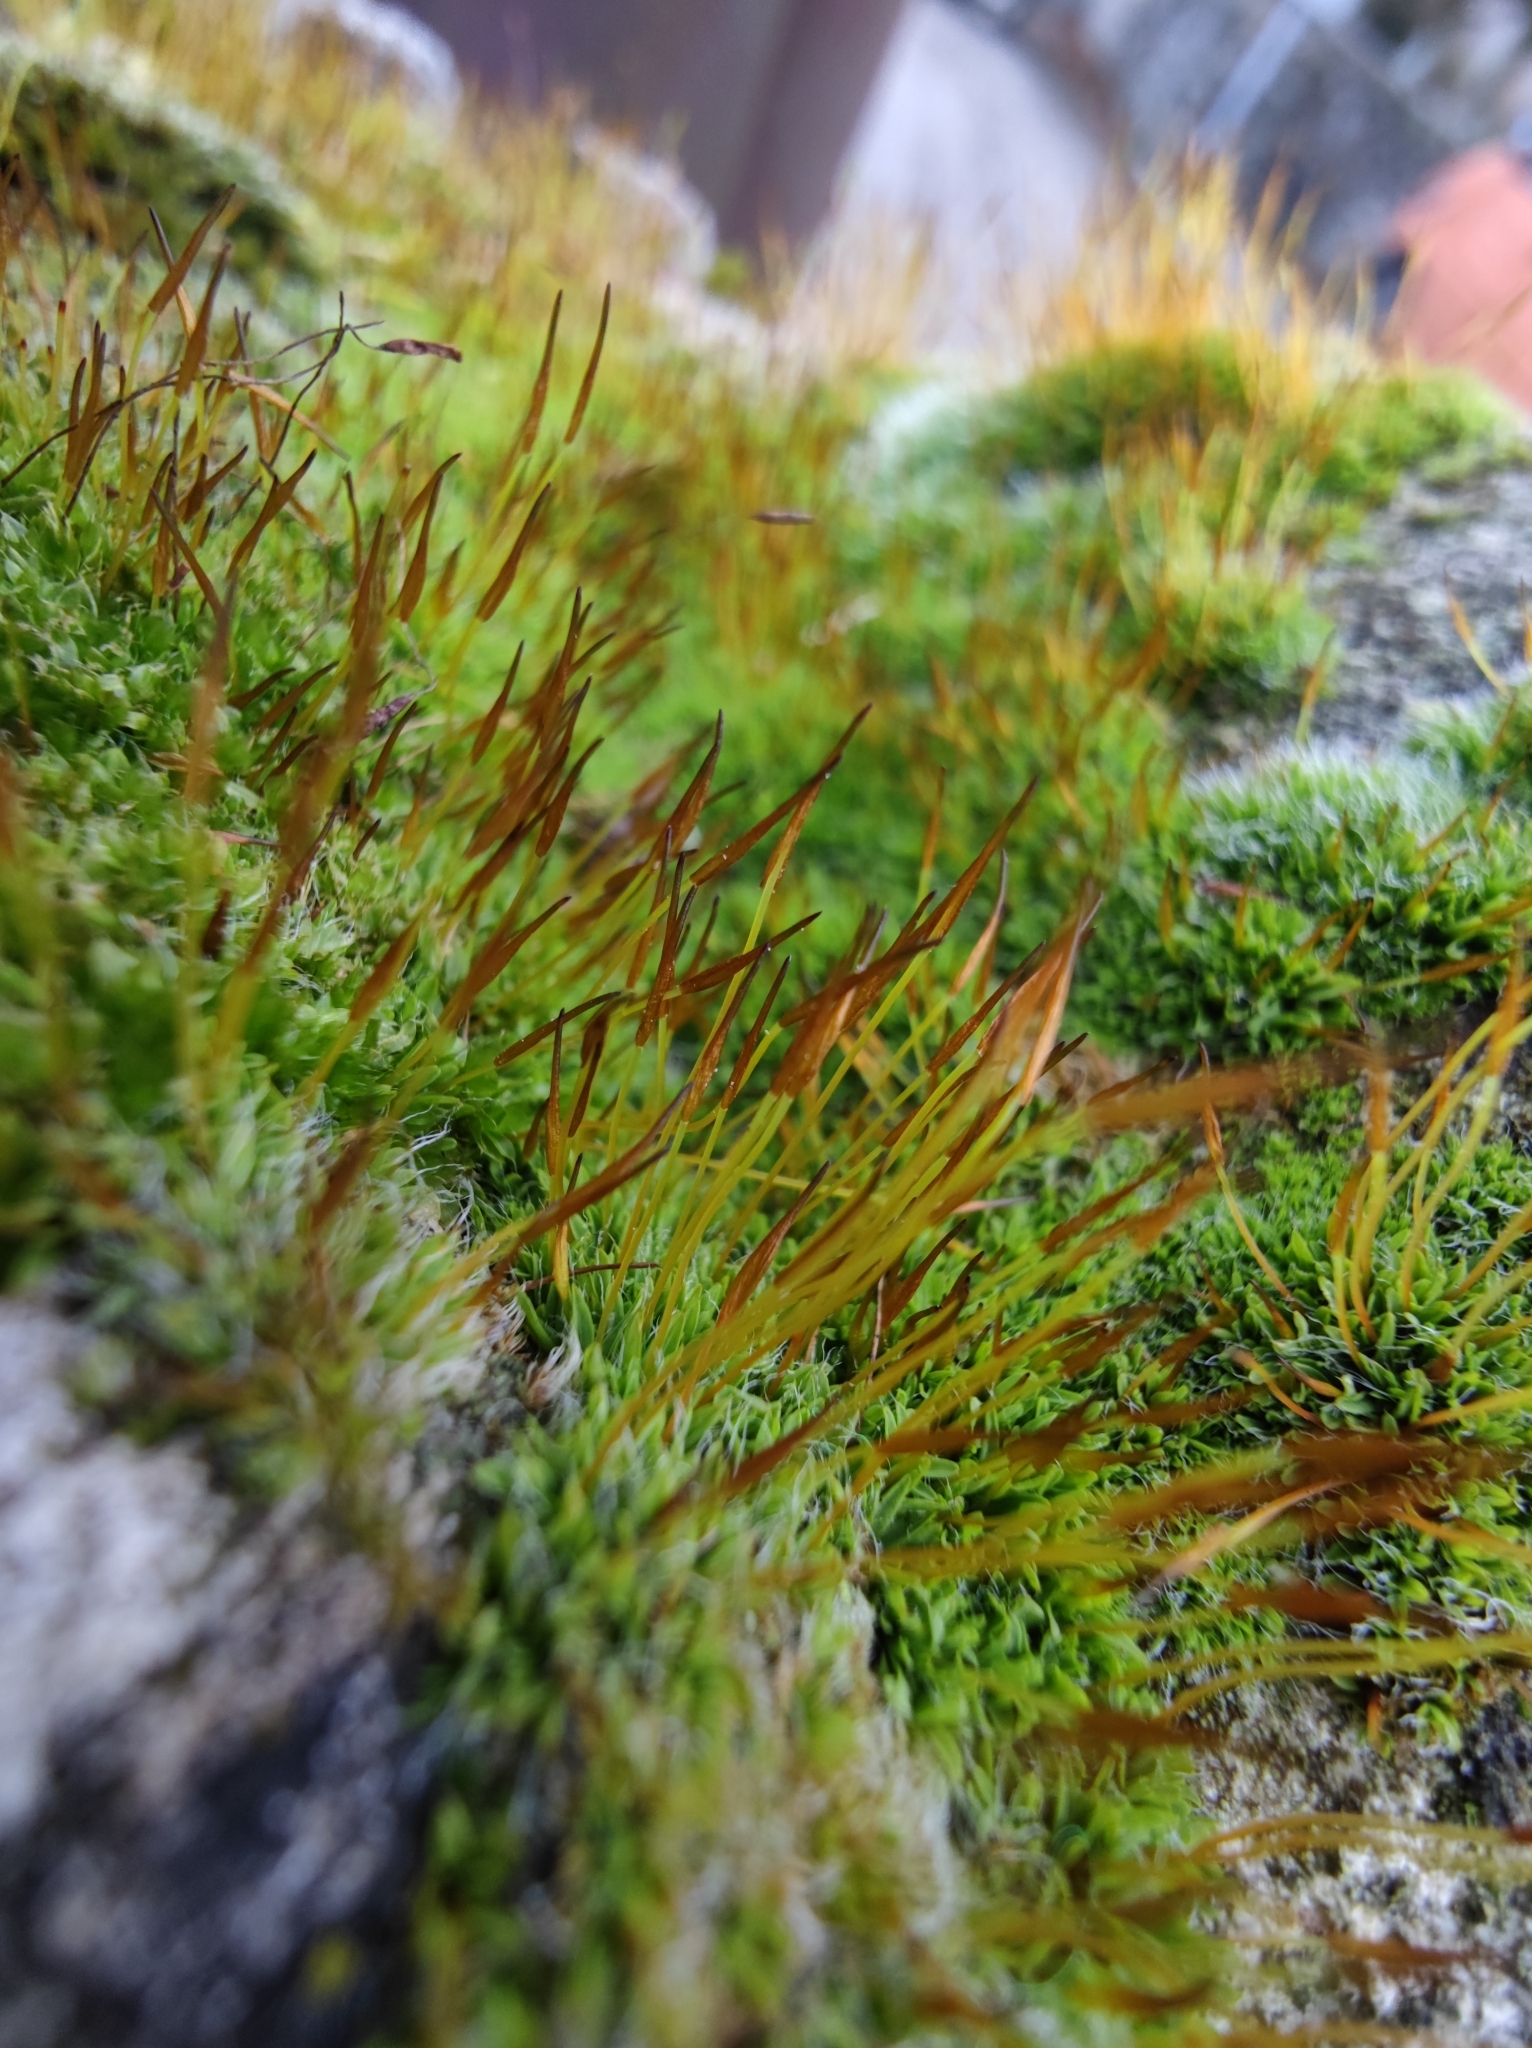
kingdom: Plantae
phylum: Bryophyta
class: Bryopsida
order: Pottiales
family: Pottiaceae
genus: Tortula
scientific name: Tortula muralis
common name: Wall screw-moss
